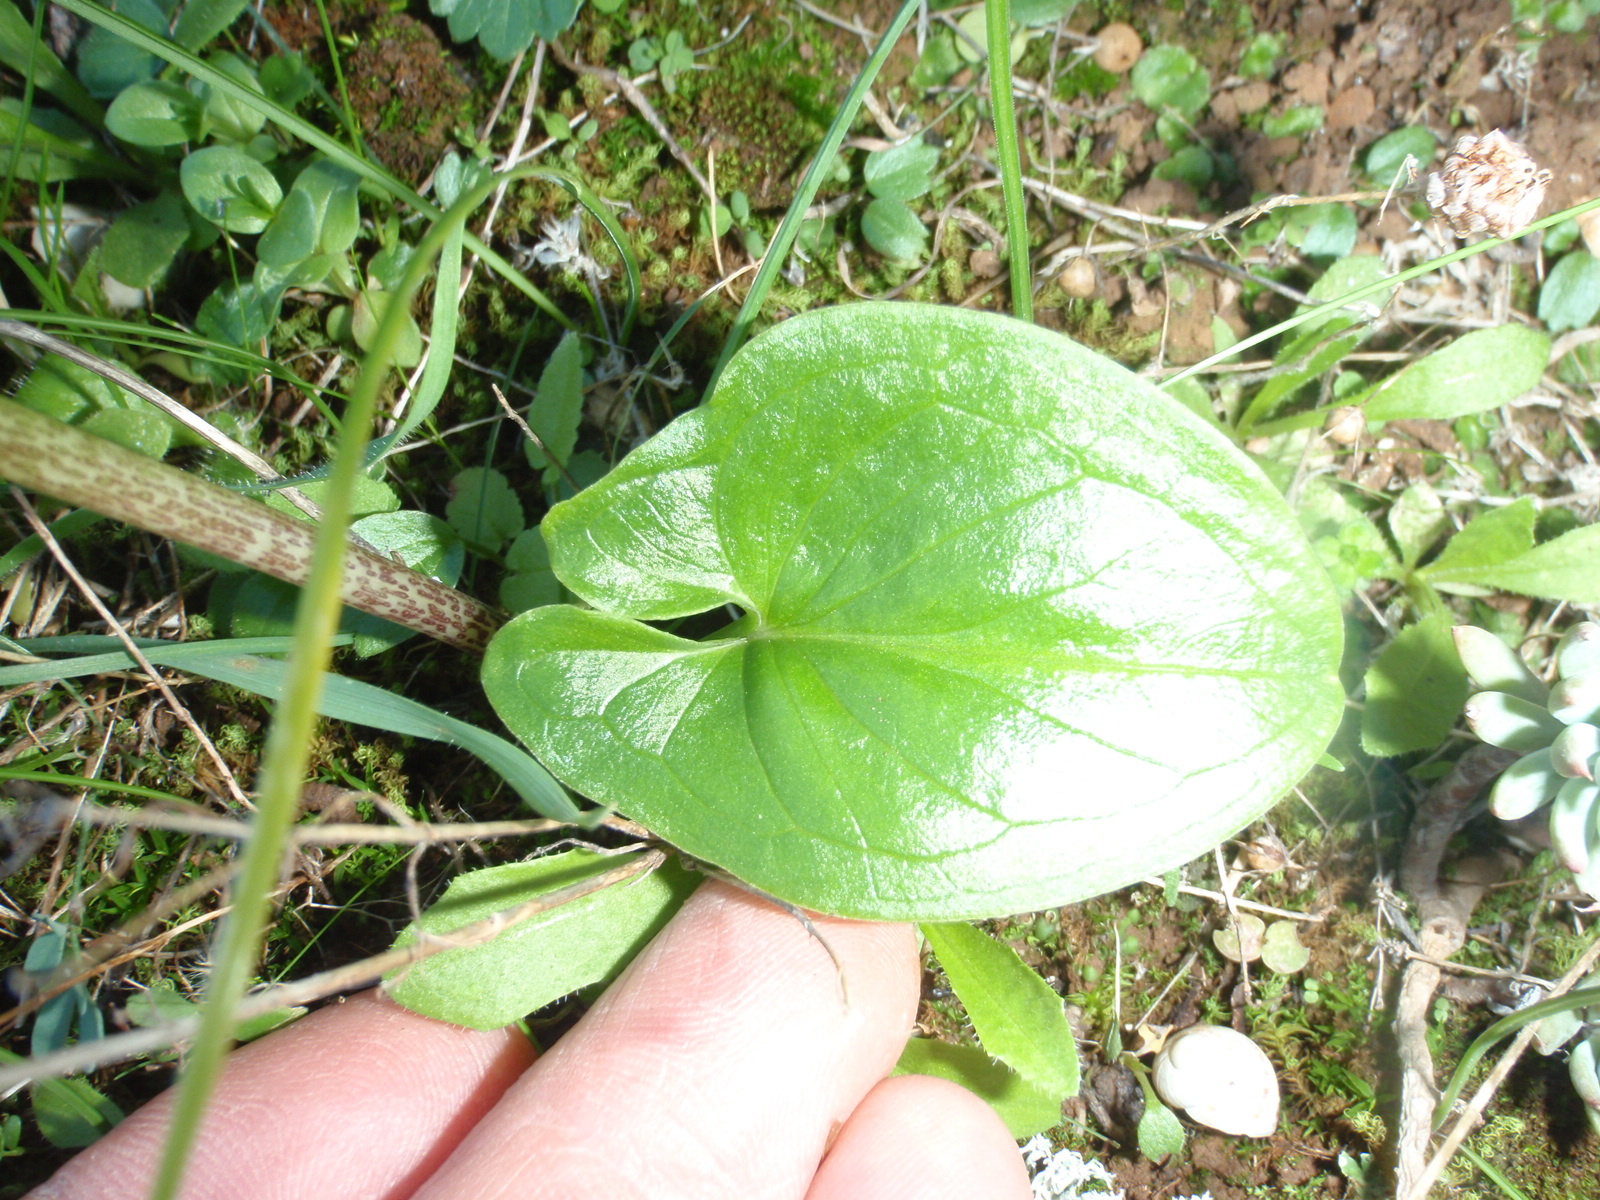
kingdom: Plantae
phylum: Tracheophyta
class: Liliopsida
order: Alismatales
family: Araceae
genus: Arisarum
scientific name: Arisarum vulgare
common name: Common arisarum
